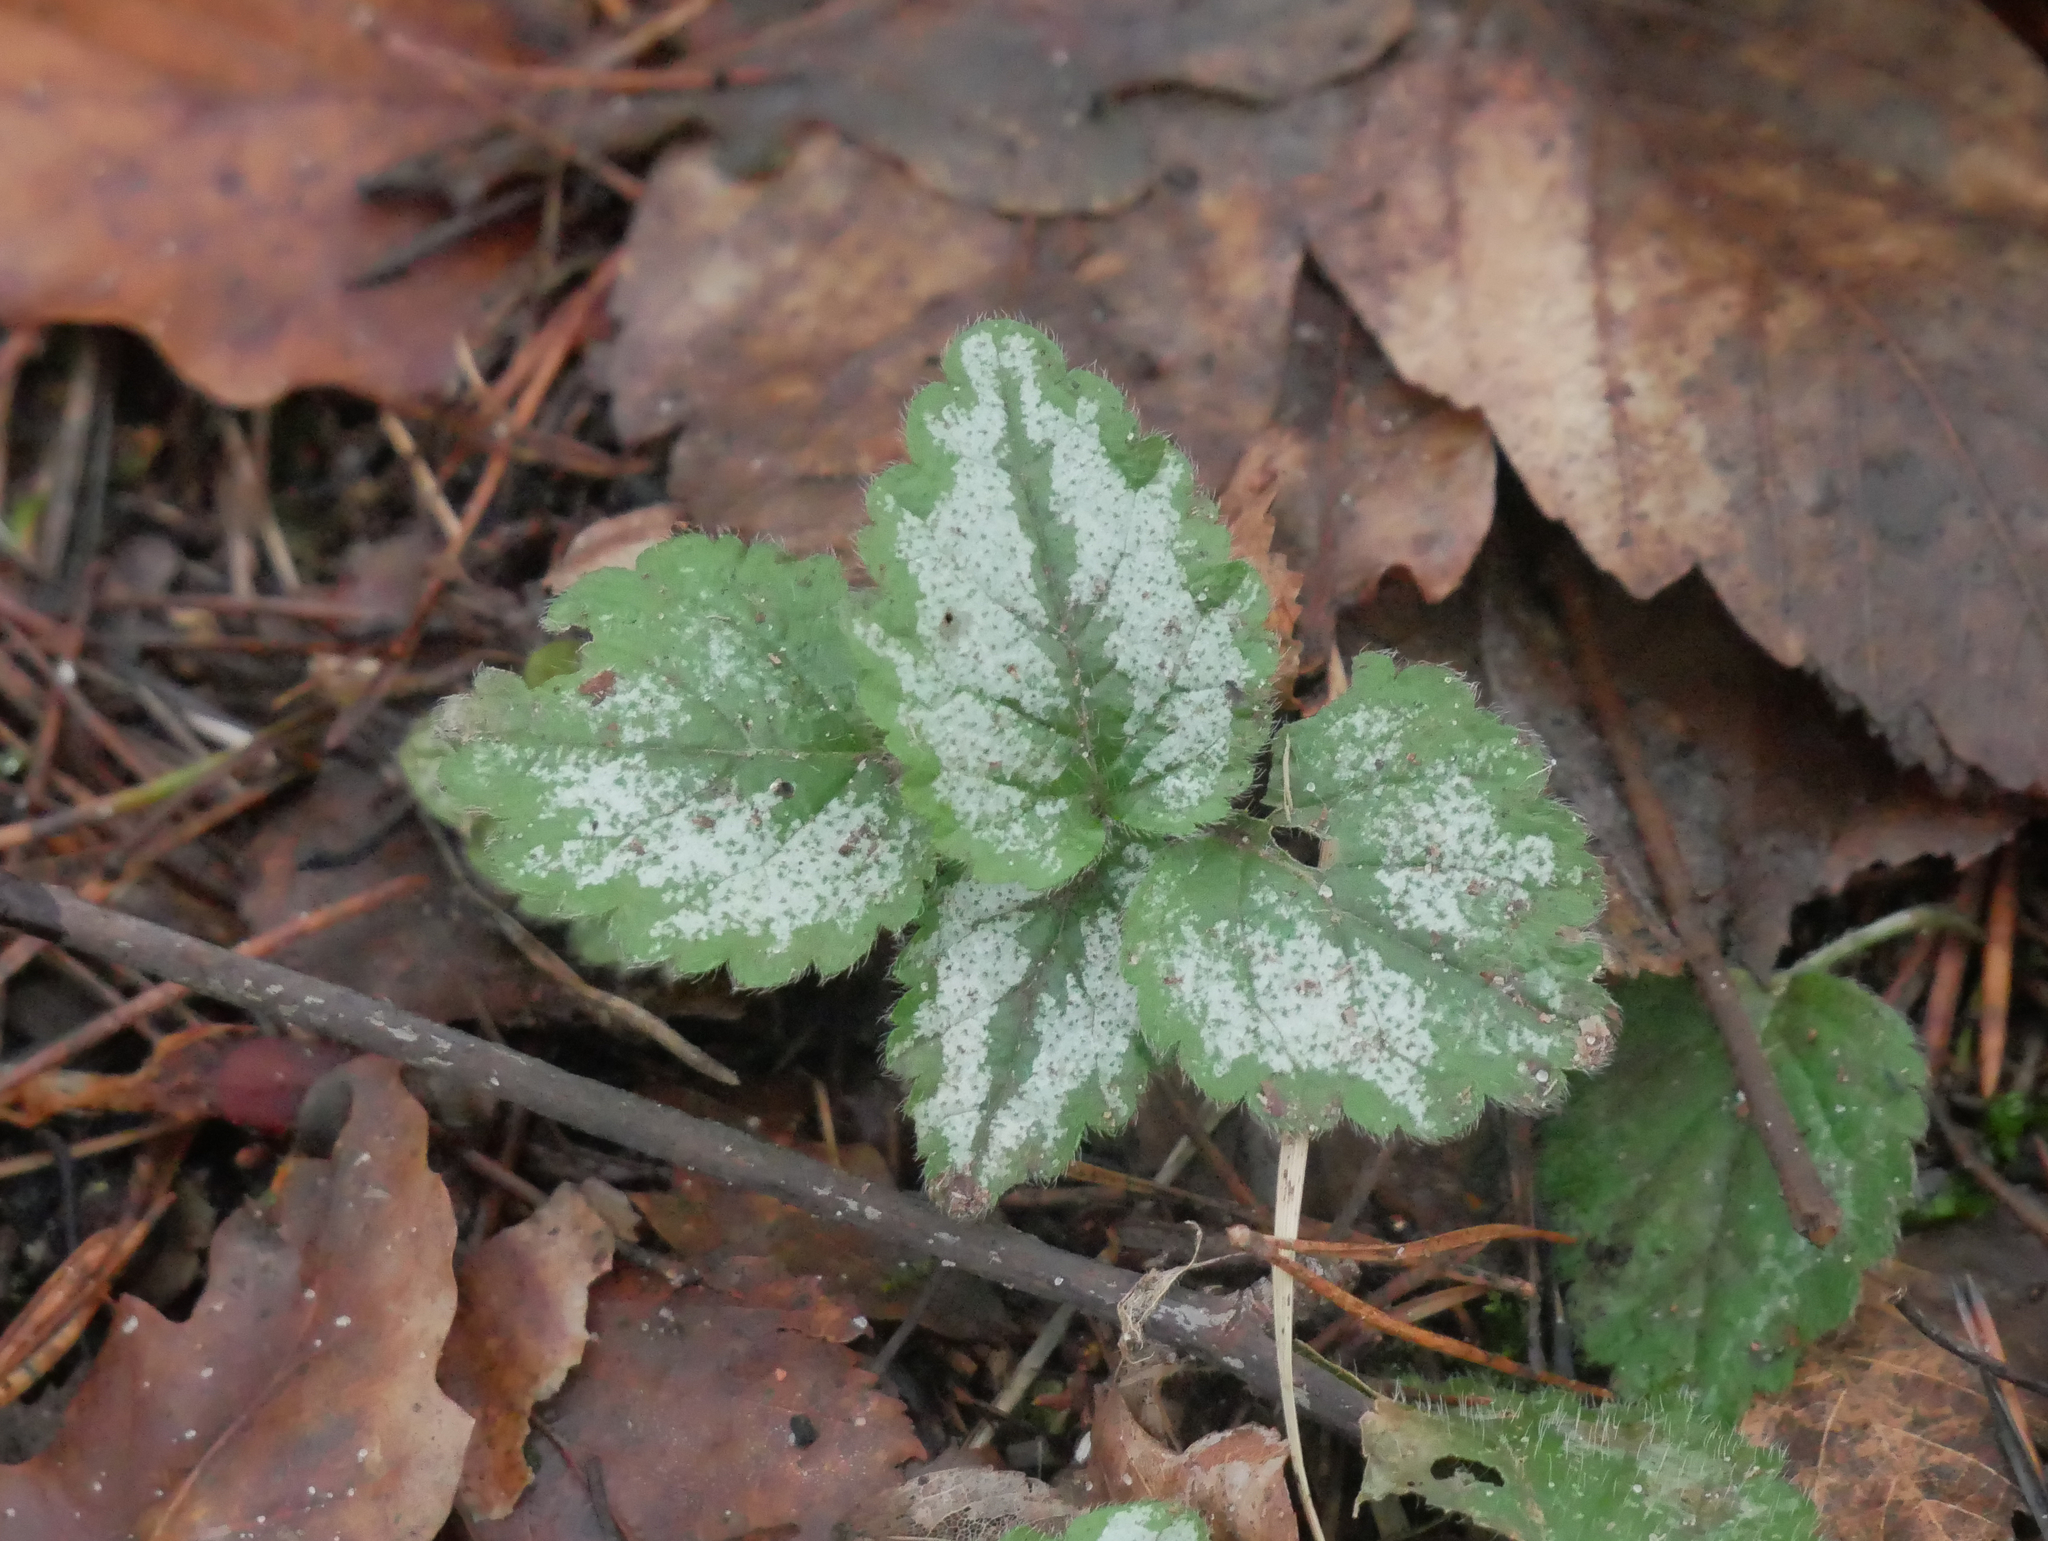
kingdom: Plantae
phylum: Tracheophyta
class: Magnoliopsida
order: Lamiales
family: Lamiaceae
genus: Lamium
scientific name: Lamium galeobdolon
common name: Yellow archangel
